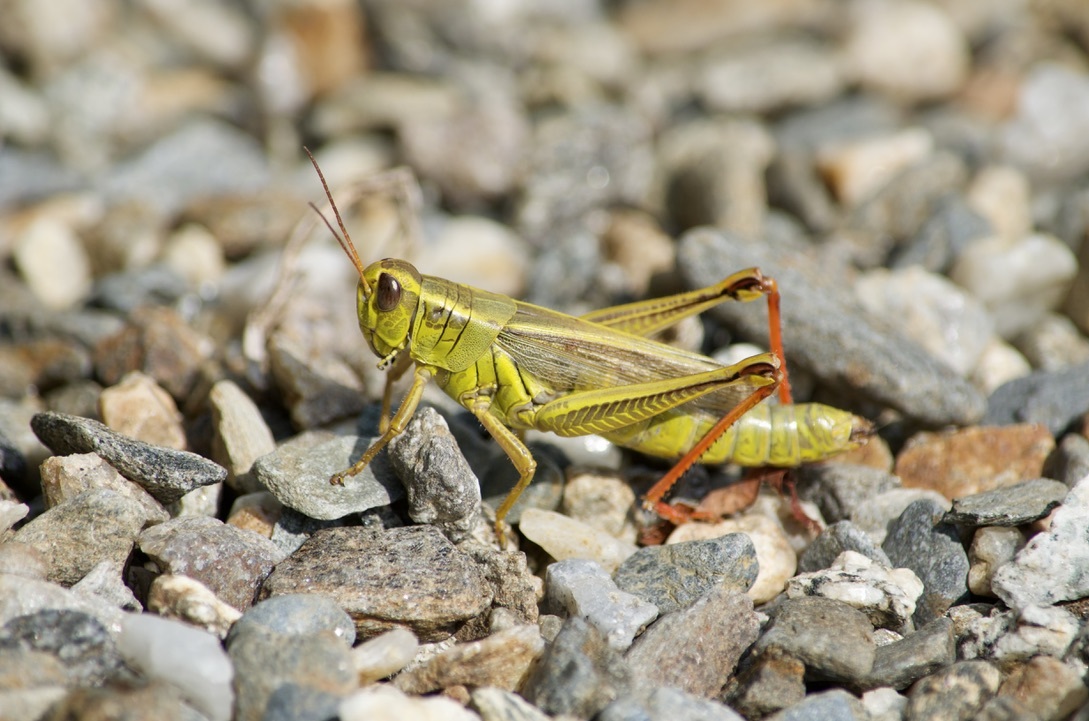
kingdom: Animalia
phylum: Arthropoda
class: Insecta
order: Orthoptera
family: Acrididae
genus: Melanoplus
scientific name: Melanoplus bivittatus
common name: Two-striped grasshopper
